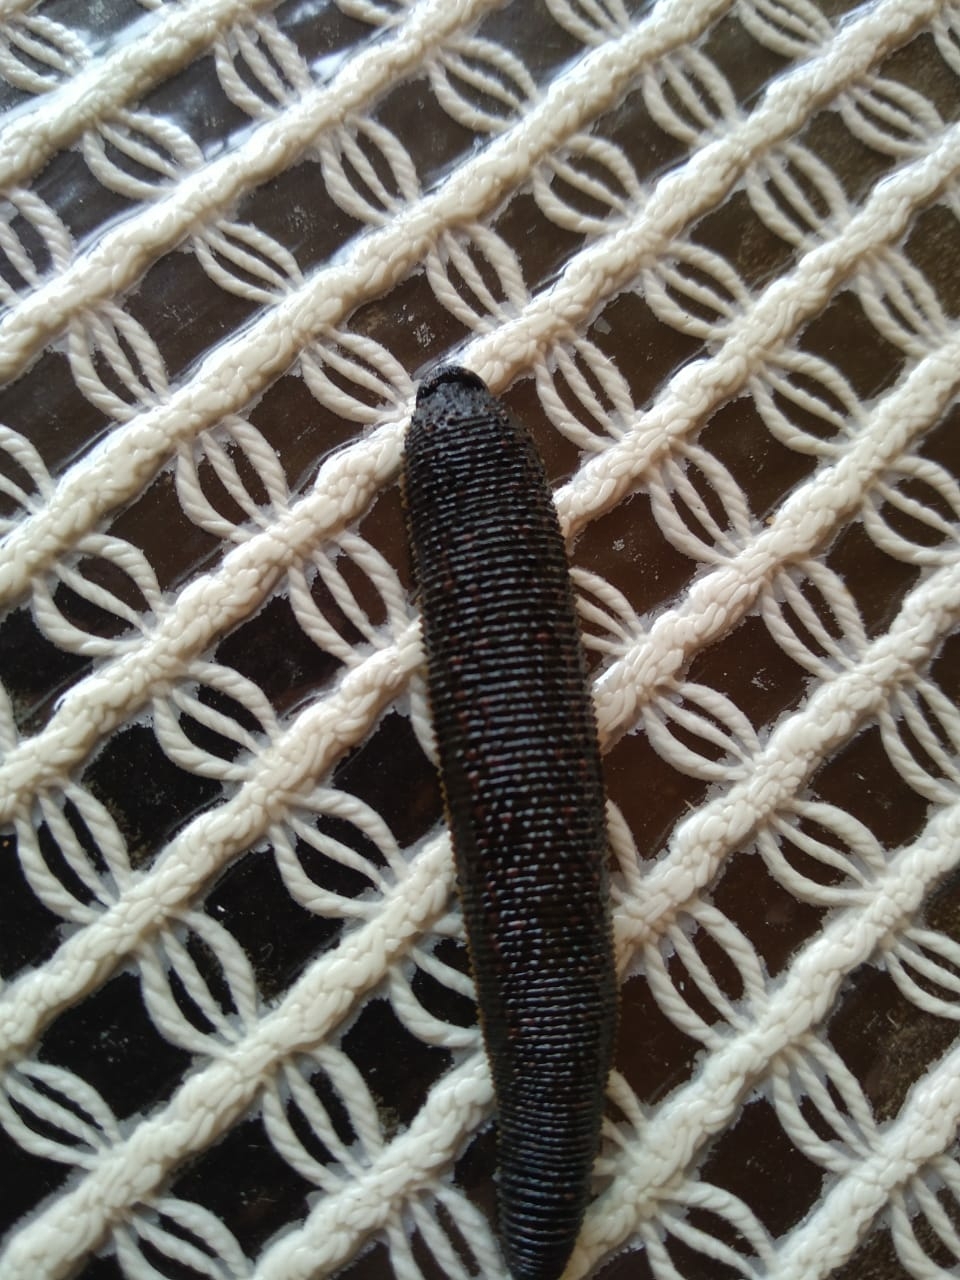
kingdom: Animalia
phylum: Annelida
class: Clitellata
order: Arhynchobdellida
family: Haemopidae
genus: Haemopis
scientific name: Haemopis sanguisuga
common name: Horse leech
